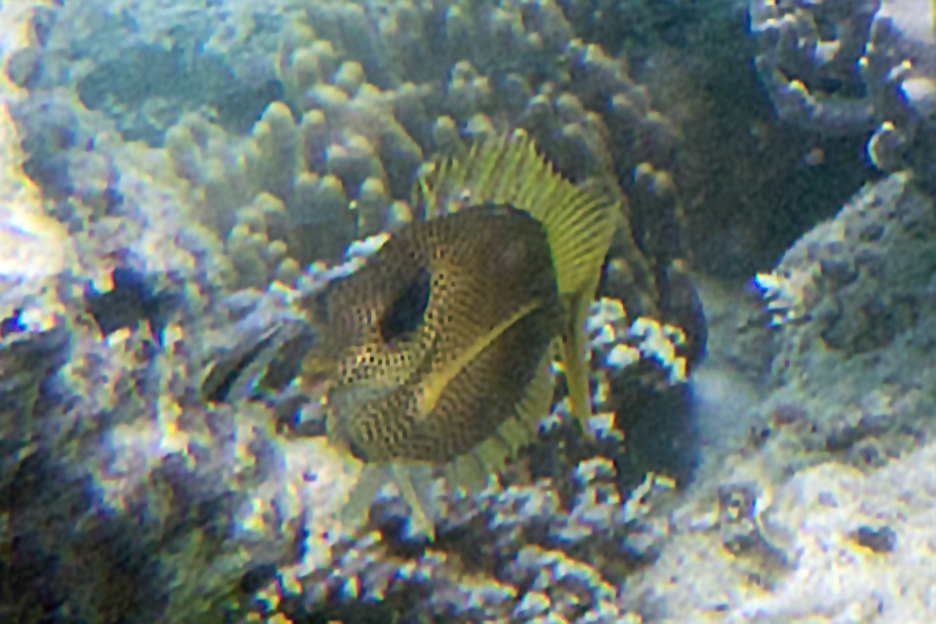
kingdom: Animalia
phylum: Chordata
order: Perciformes
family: Siganidae
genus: Siganus
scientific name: Siganus corallinus
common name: Coral rabbitfish
